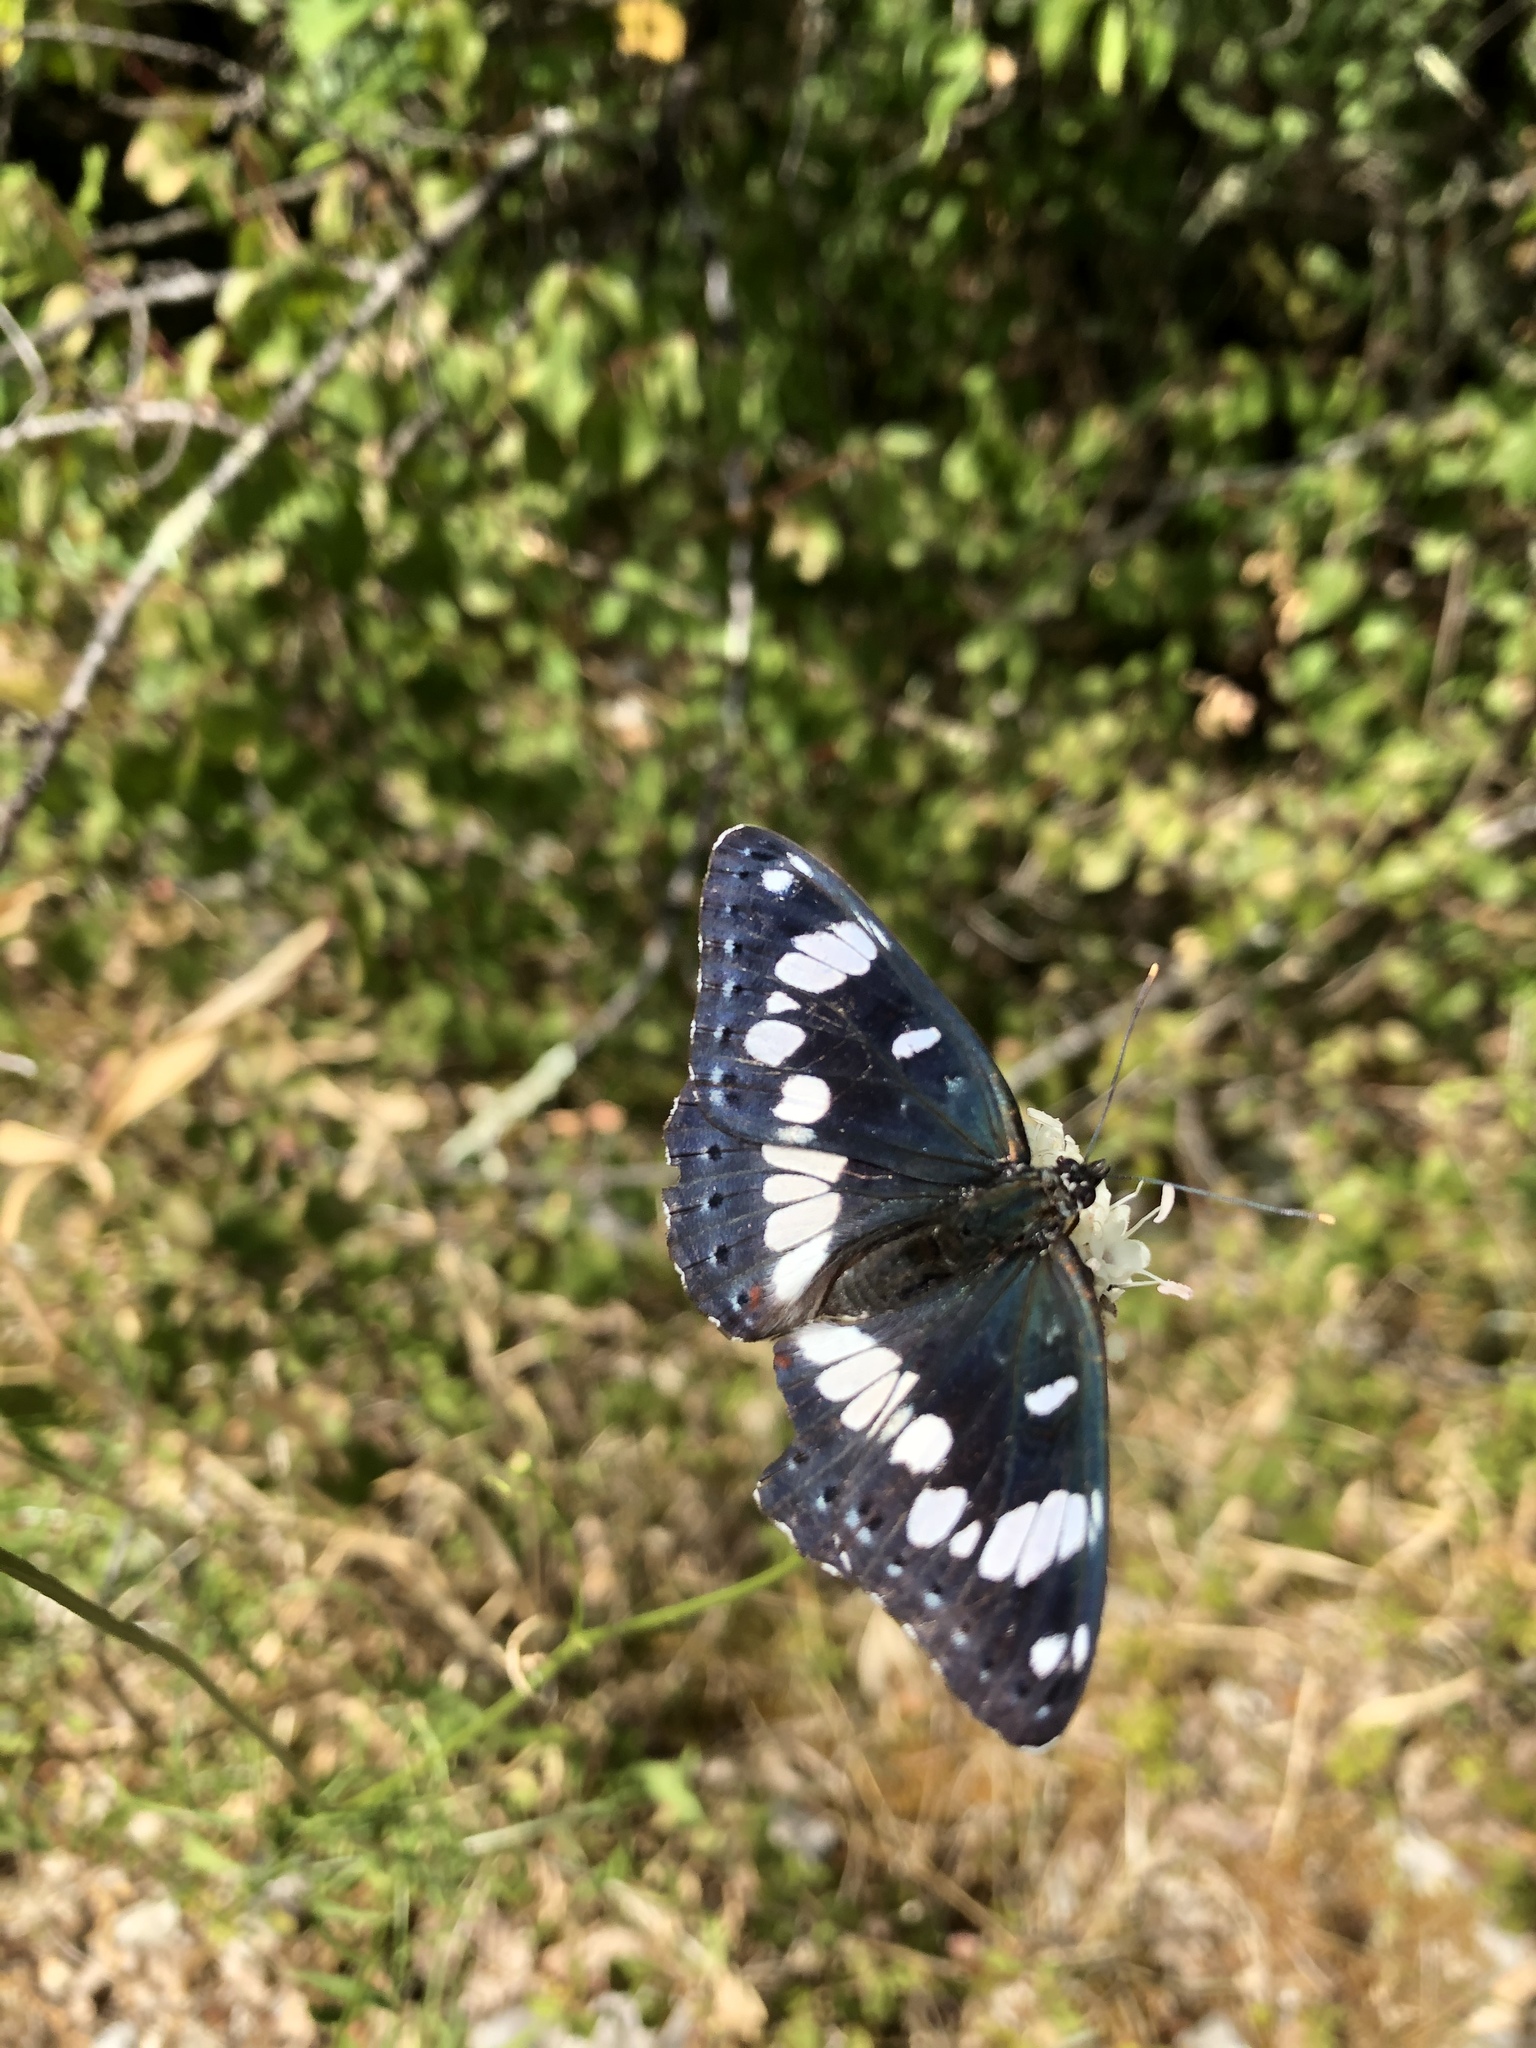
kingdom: Animalia
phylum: Arthropoda
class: Insecta
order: Lepidoptera
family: Nymphalidae
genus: Limenitis
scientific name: Limenitis reducta
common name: Southern white admiral
